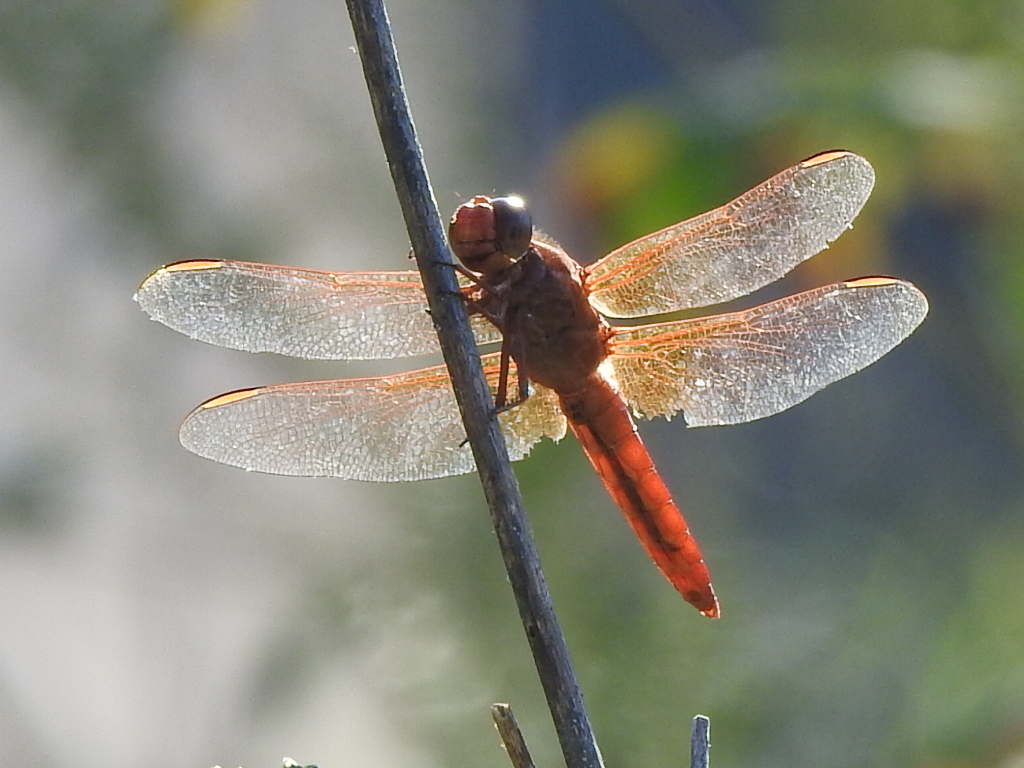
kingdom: Animalia
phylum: Arthropoda
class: Insecta
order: Odonata
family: Libellulidae
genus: Libellula
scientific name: Libellula croceipennis
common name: Neon skimmer
